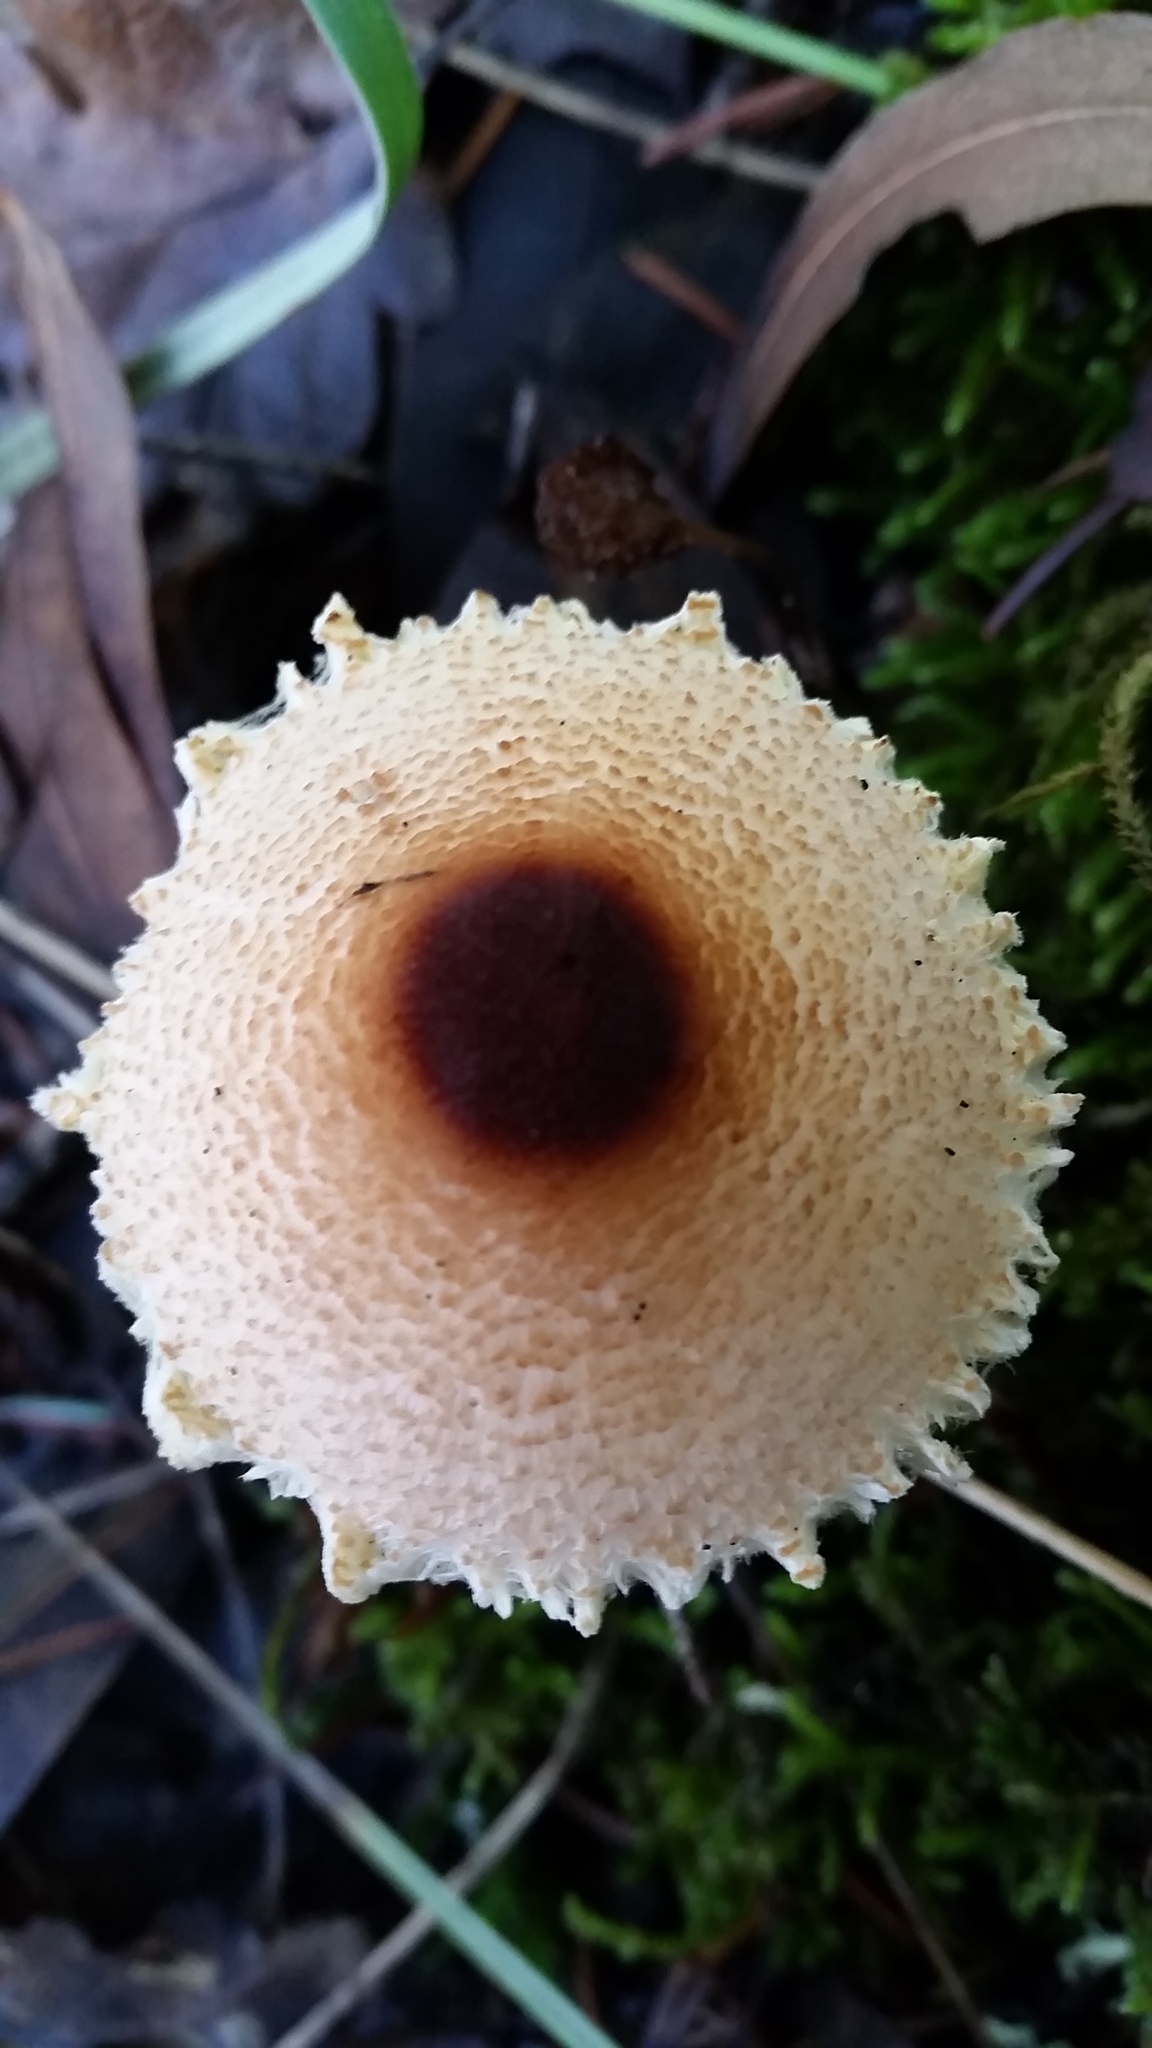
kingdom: Fungi
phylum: Basidiomycota
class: Agaricomycetes
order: Agaricales
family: Agaricaceae
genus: Lepiota
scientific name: Lepiota magnispora
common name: Yellowfoot dapperling
